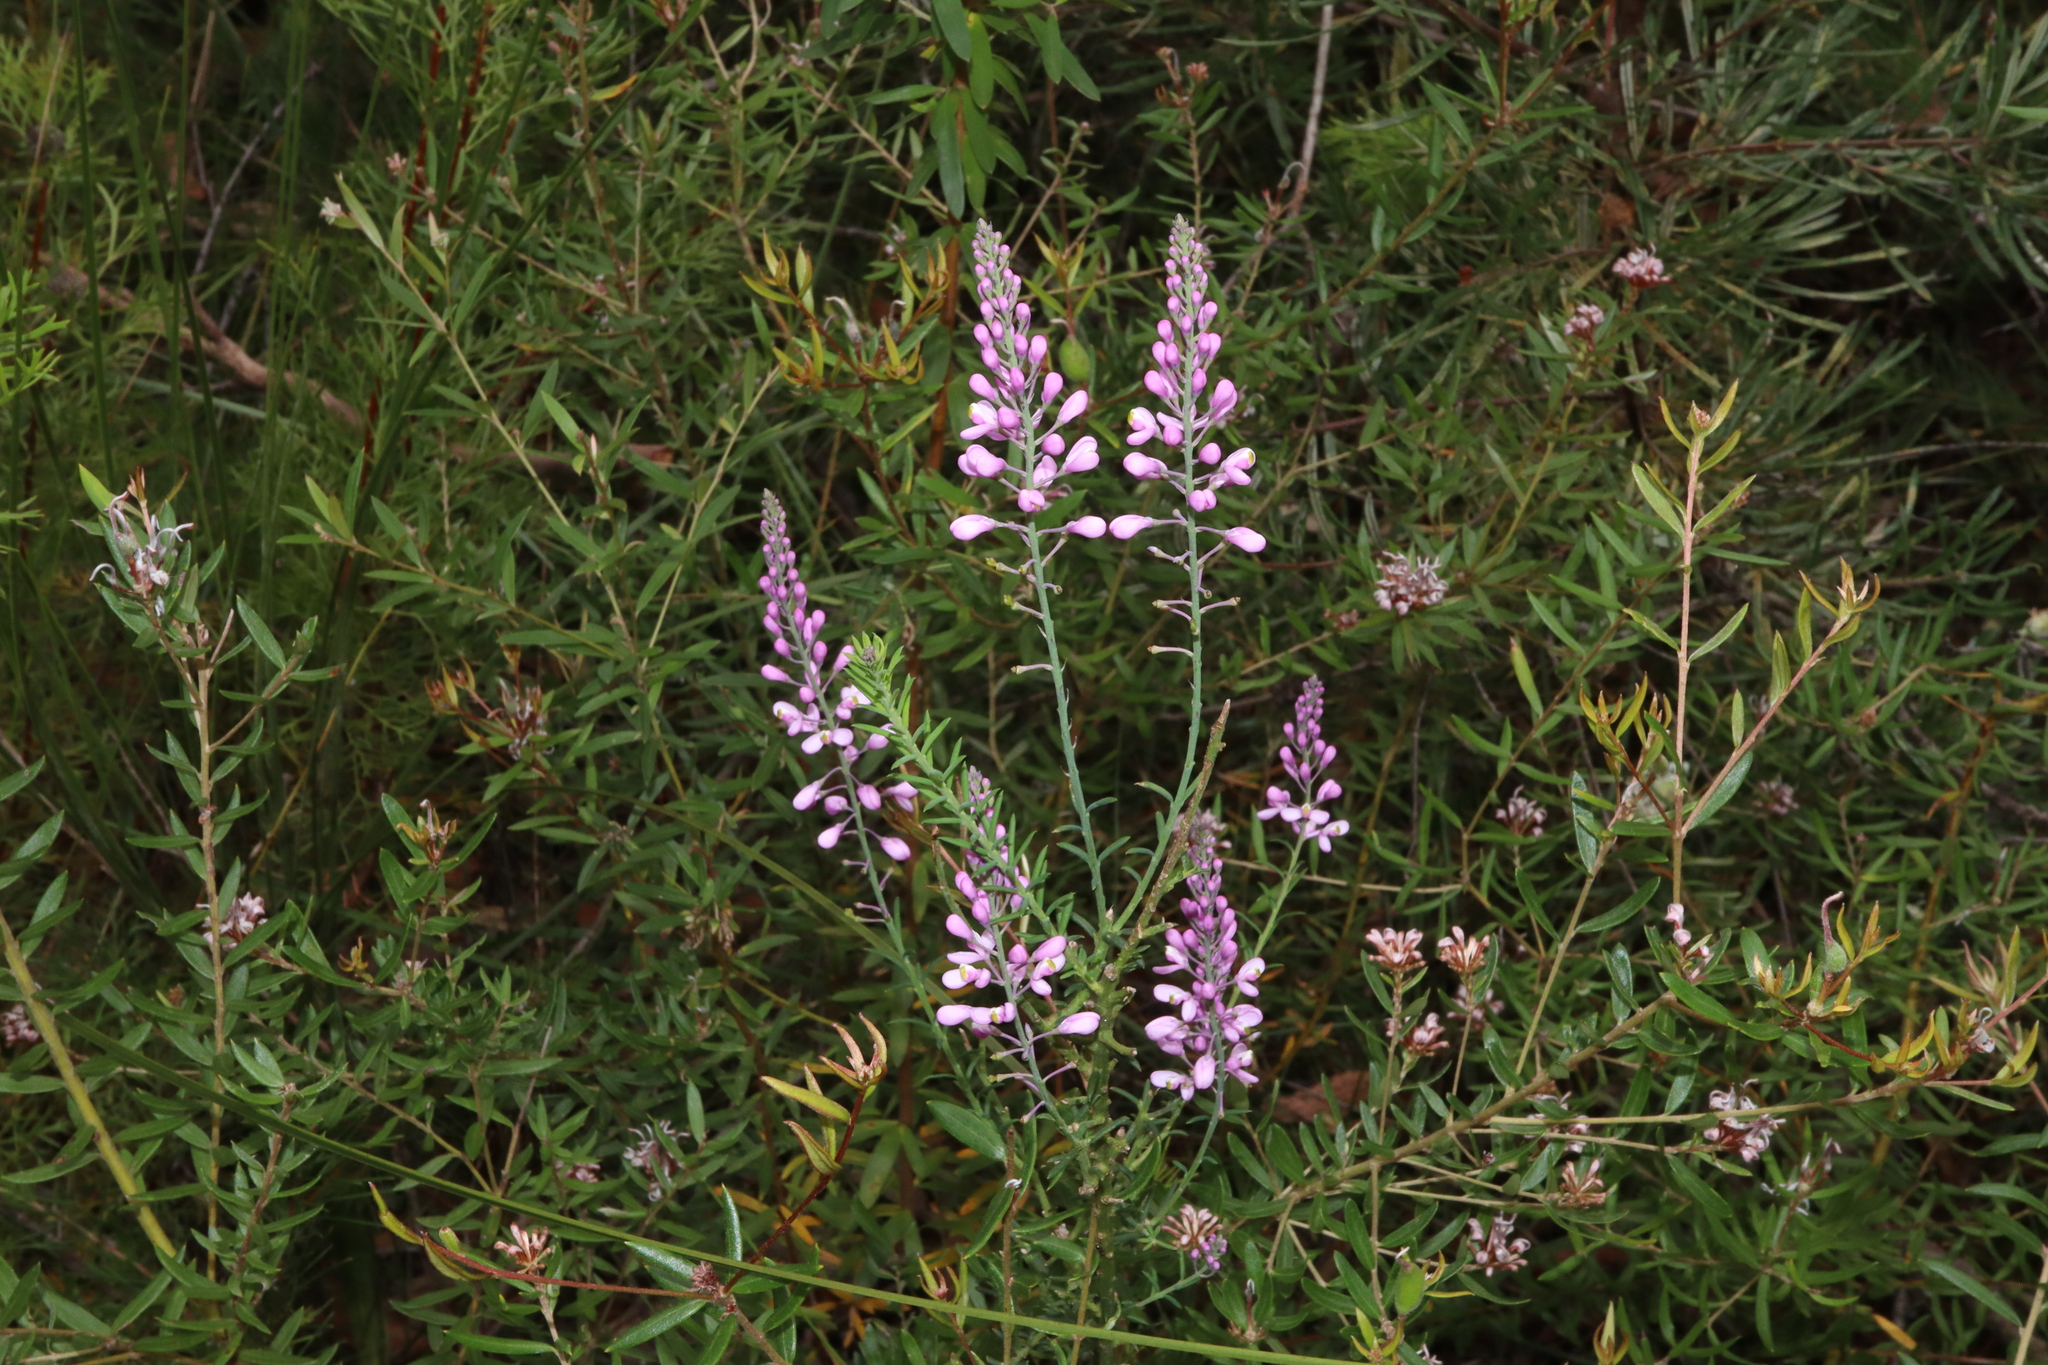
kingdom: Plantae
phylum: Tracheophyta
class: Magnoliopsida
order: Fabales
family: Polygalaceae
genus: Comesperma
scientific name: Comesperma ericinum
